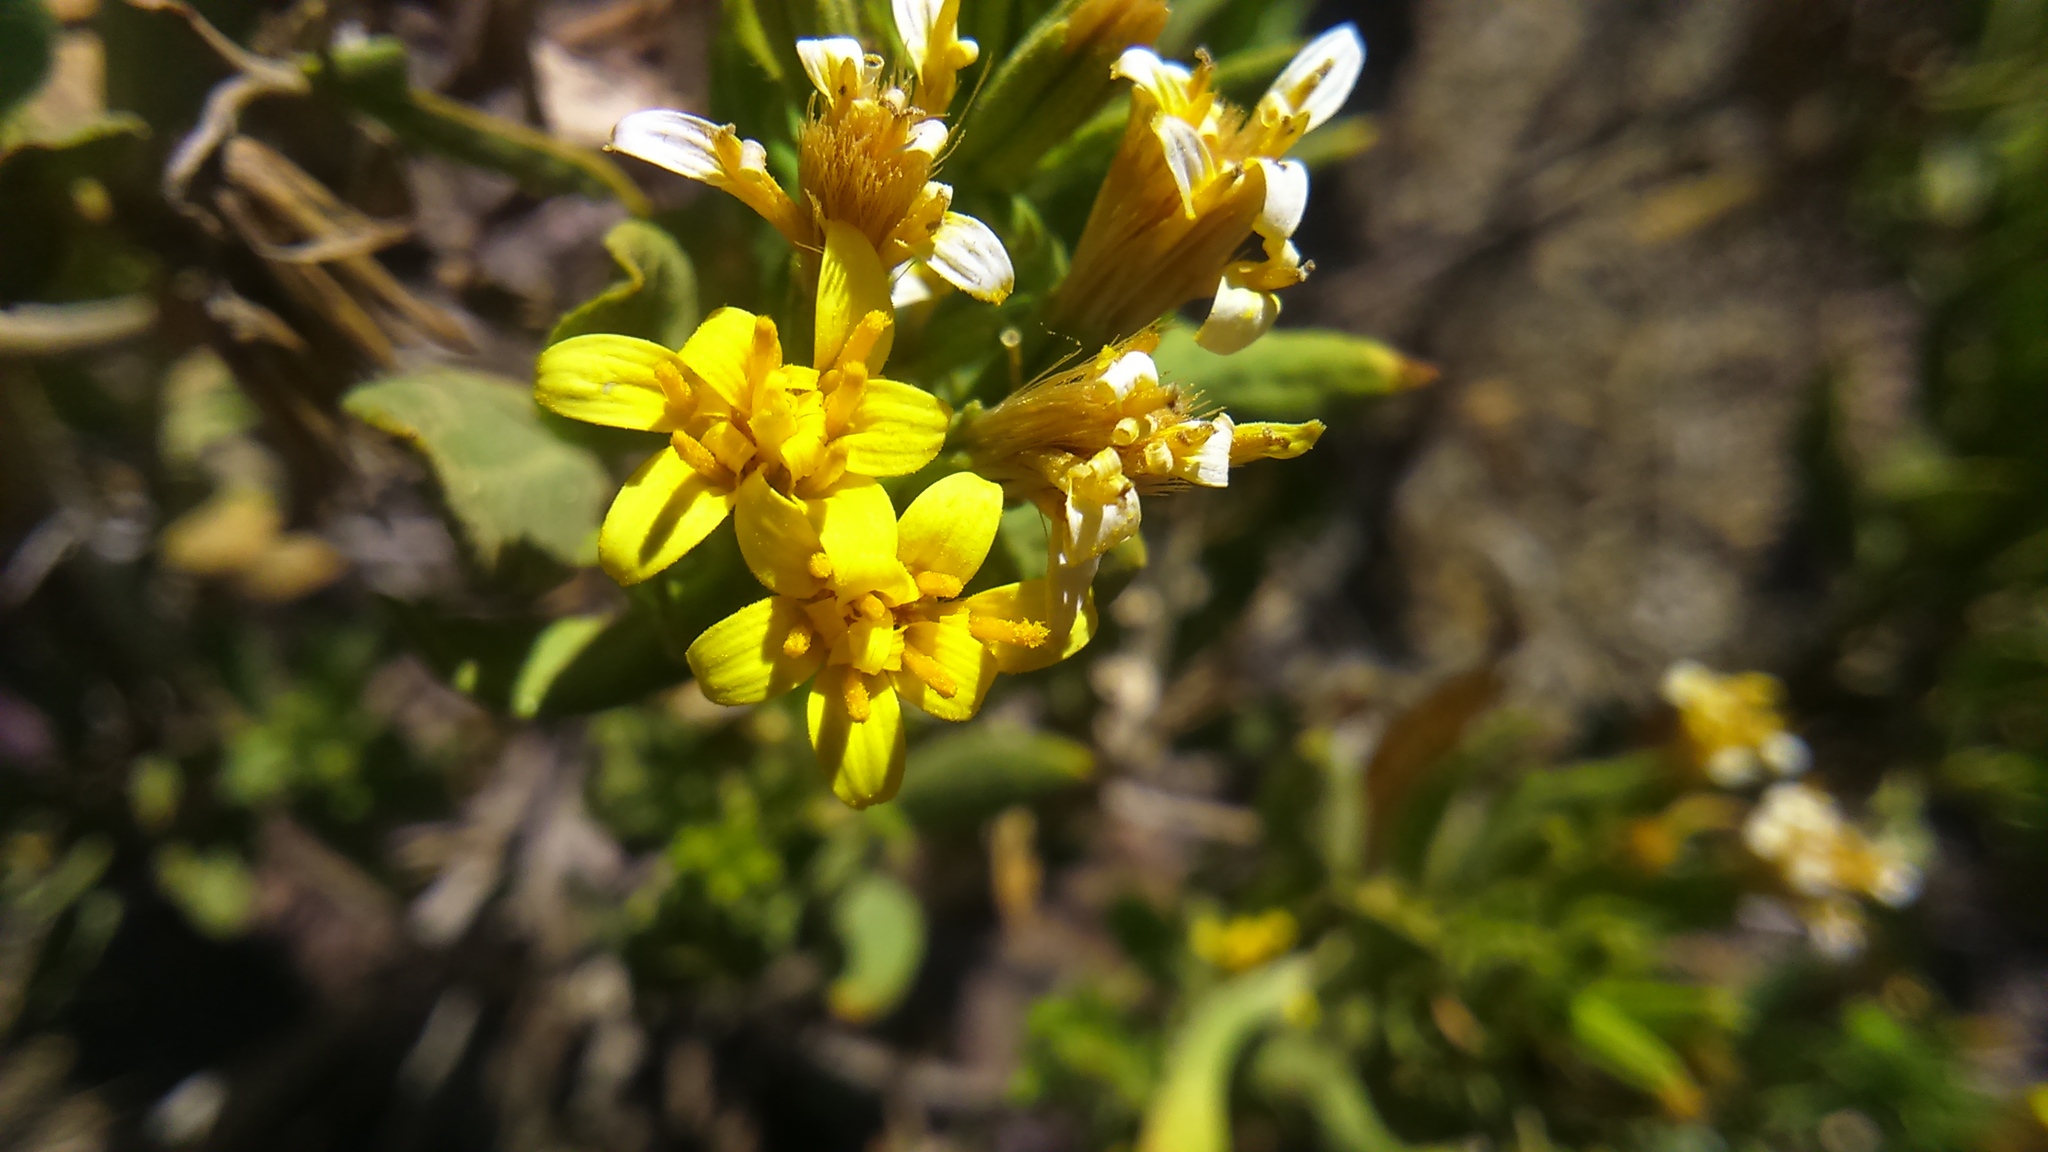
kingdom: Plantae
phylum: Tracheophyta
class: Magnoliopsida
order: Asterales
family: Asteraceae
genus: Trixis
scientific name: Trixis cacalioides
